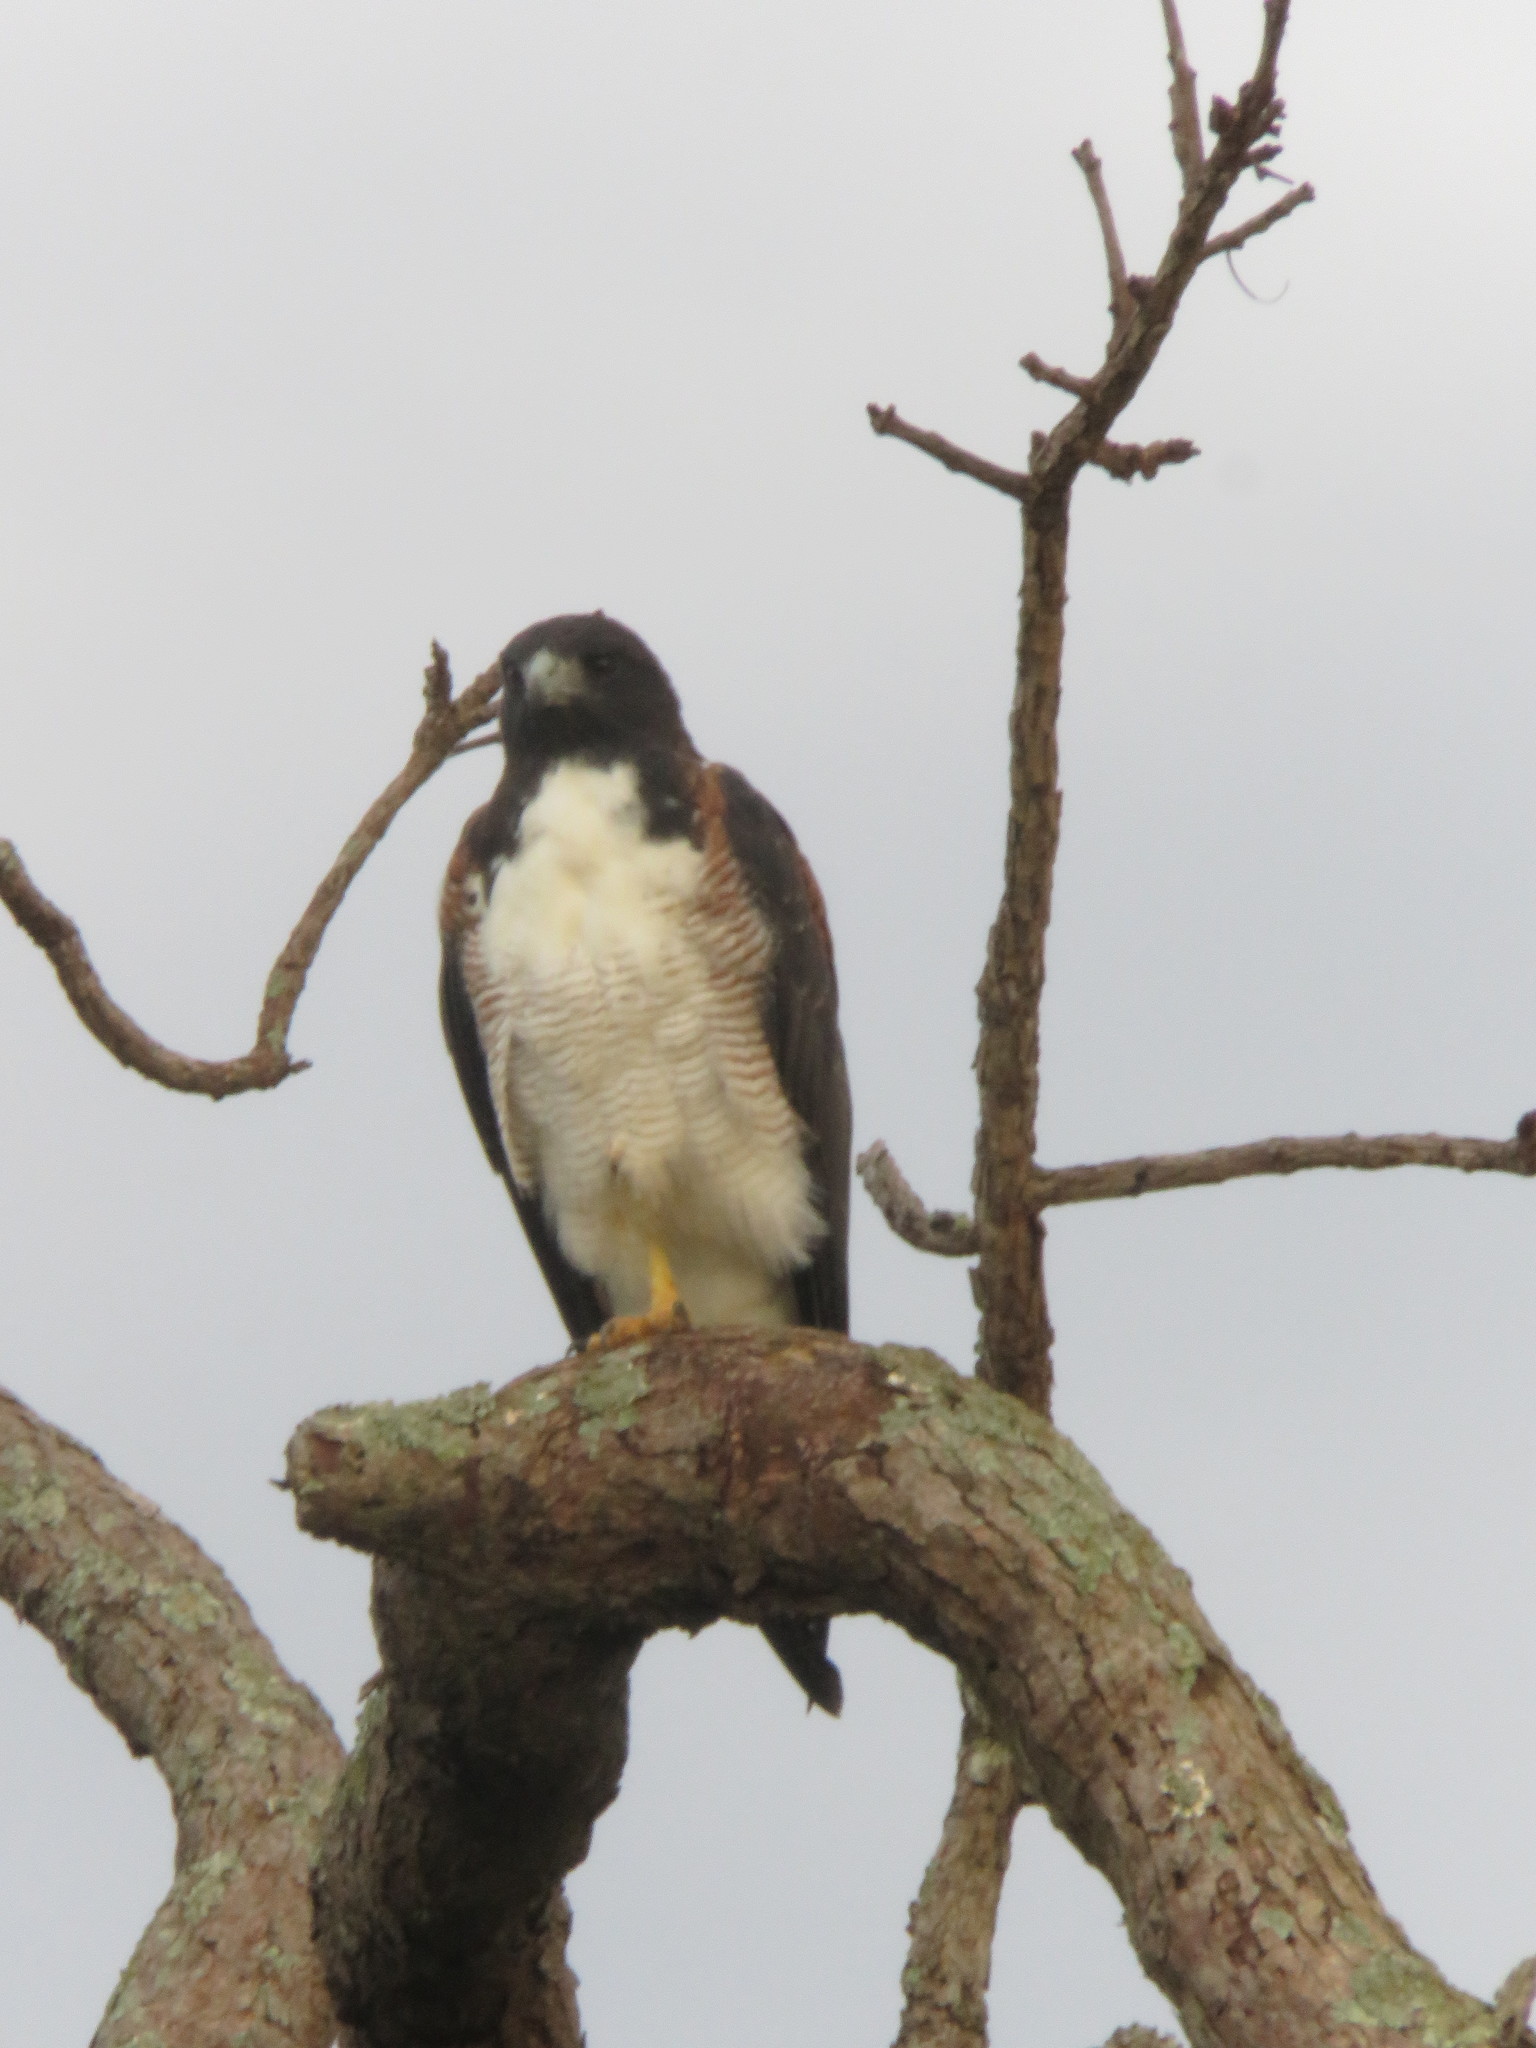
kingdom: Animalia
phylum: Chordata
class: Aves
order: Accipitriformes
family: Accipitridae
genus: Buteo
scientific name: Buteo albicaudatus
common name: White-tailed hawk
